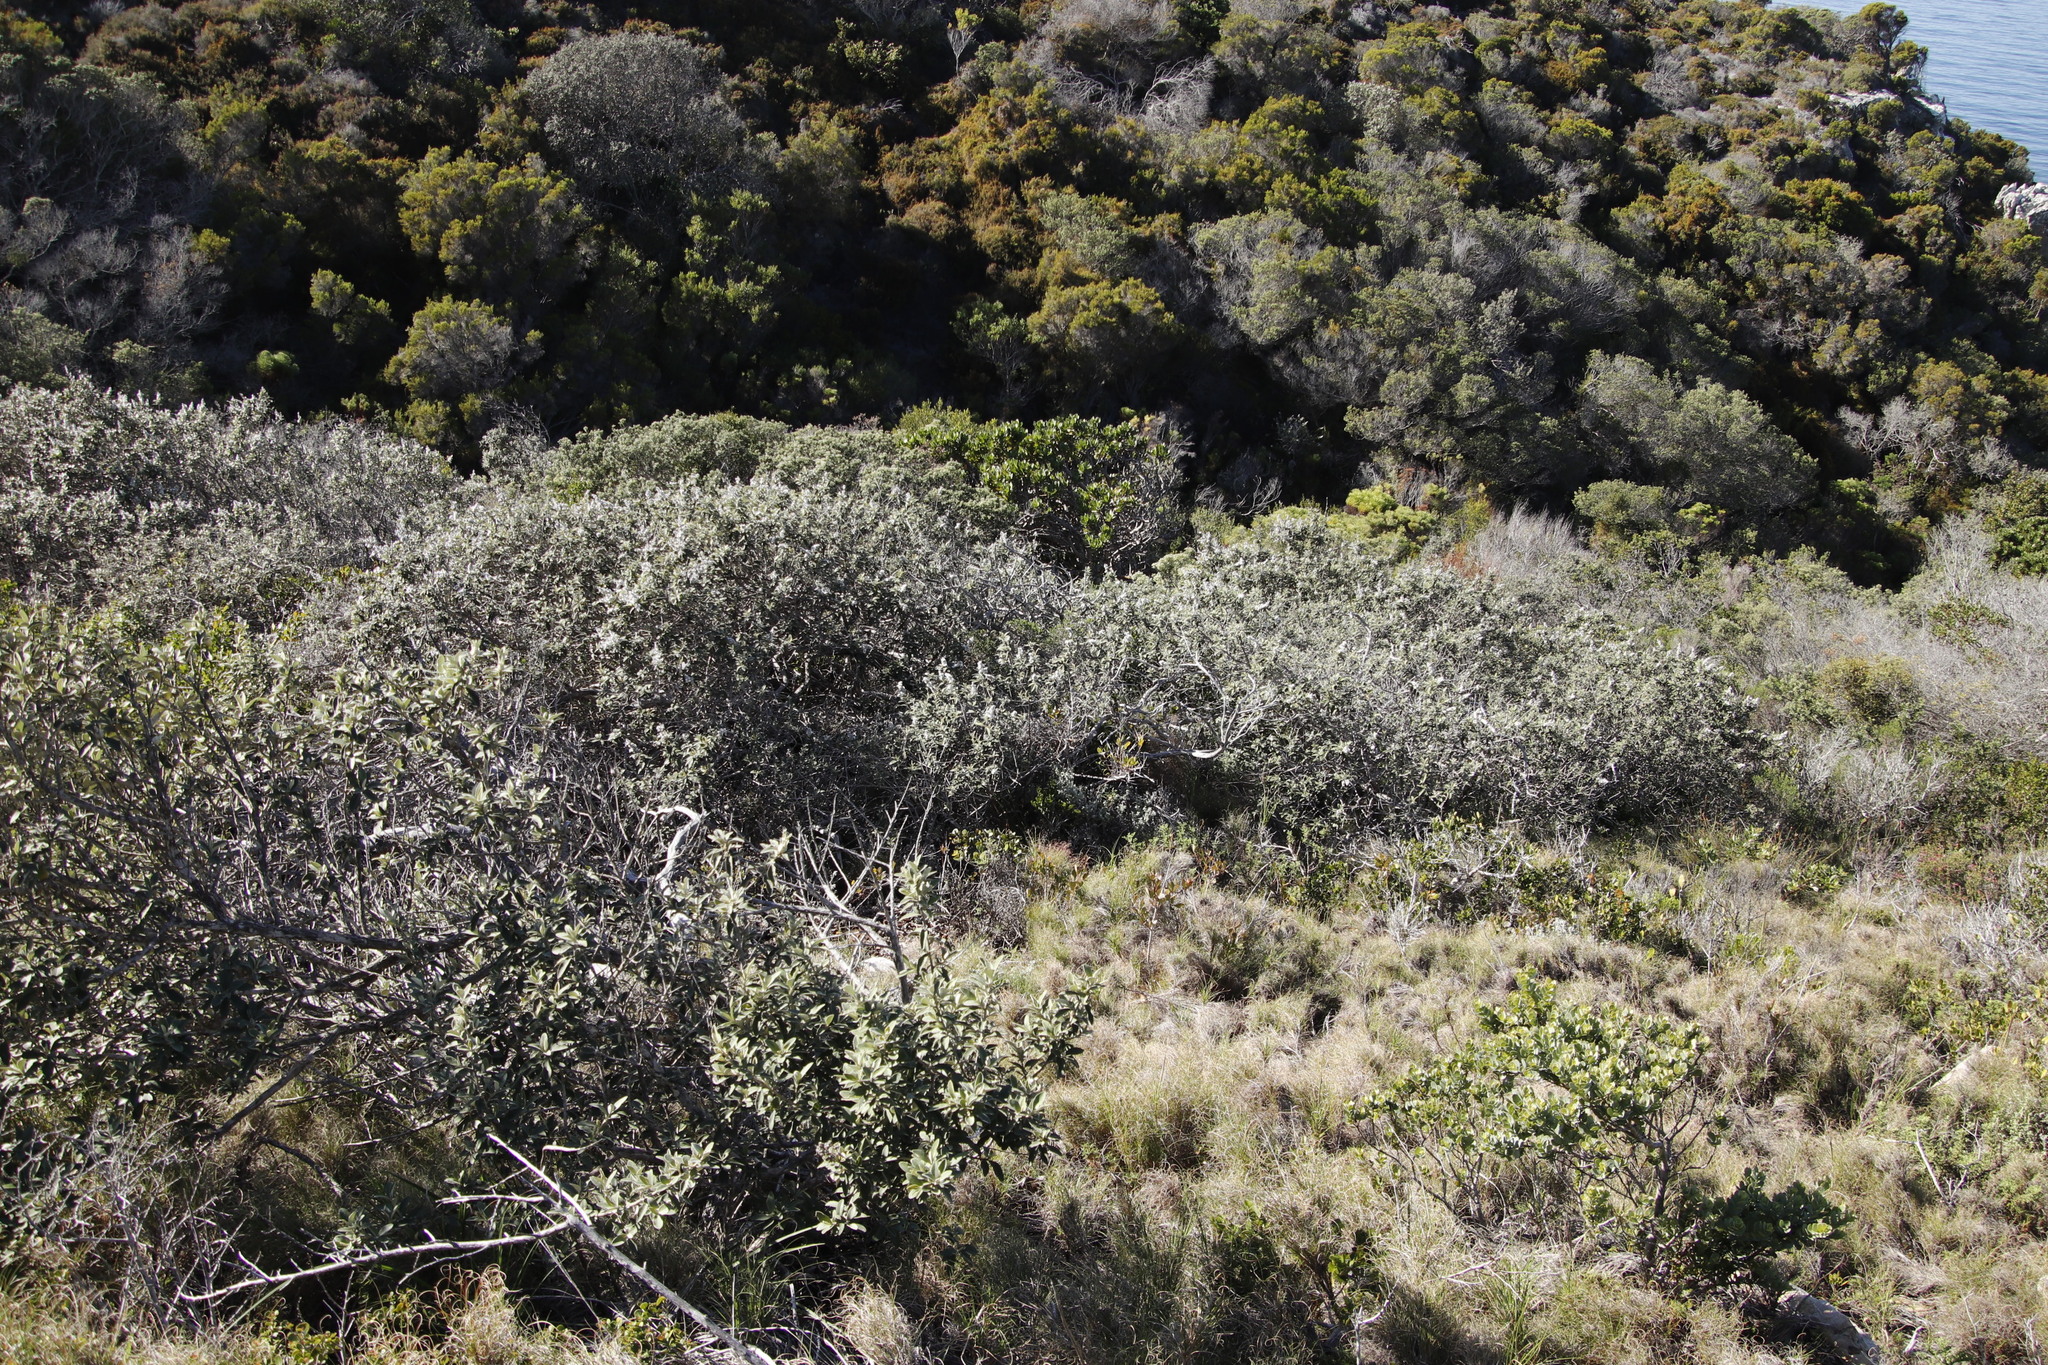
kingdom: Plantae
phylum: Tracheophyta
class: Magnoliopsida
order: Asterales
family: Asteraceae
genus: Tarchonanthus
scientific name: Tarchonanthus littoralis
